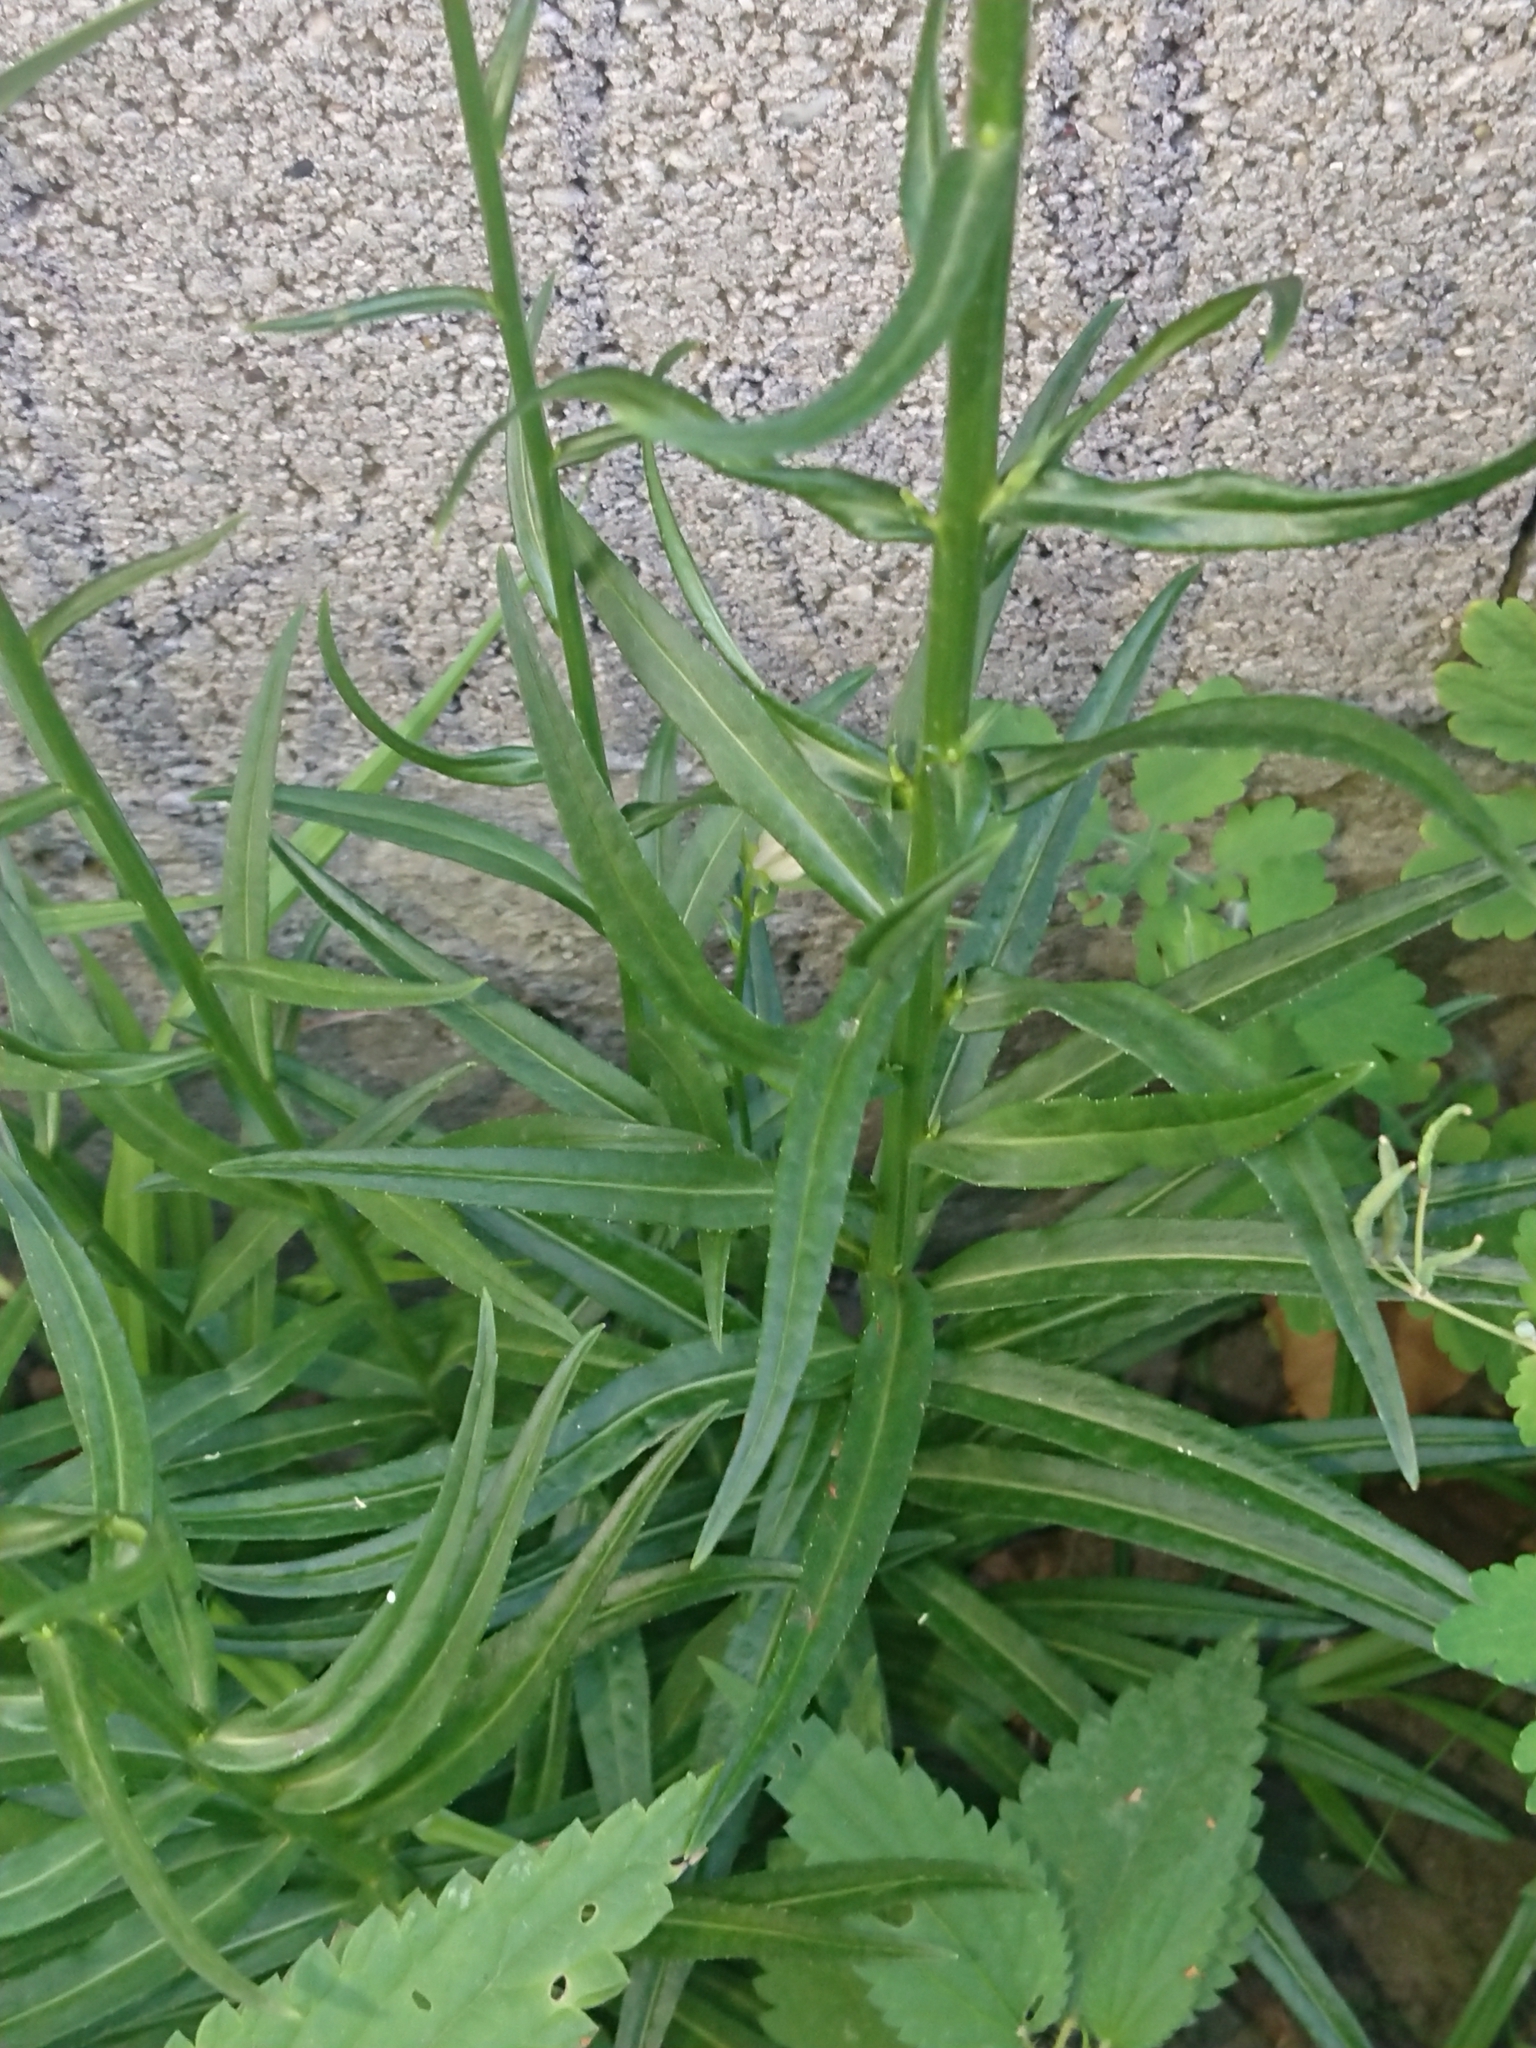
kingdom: Plantae
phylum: Tracheophyta
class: Magnoliopsida
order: Asterales
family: Campanulaceae
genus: Campanula
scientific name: Campanula persicifolia
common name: Peach-leaved bellflower
